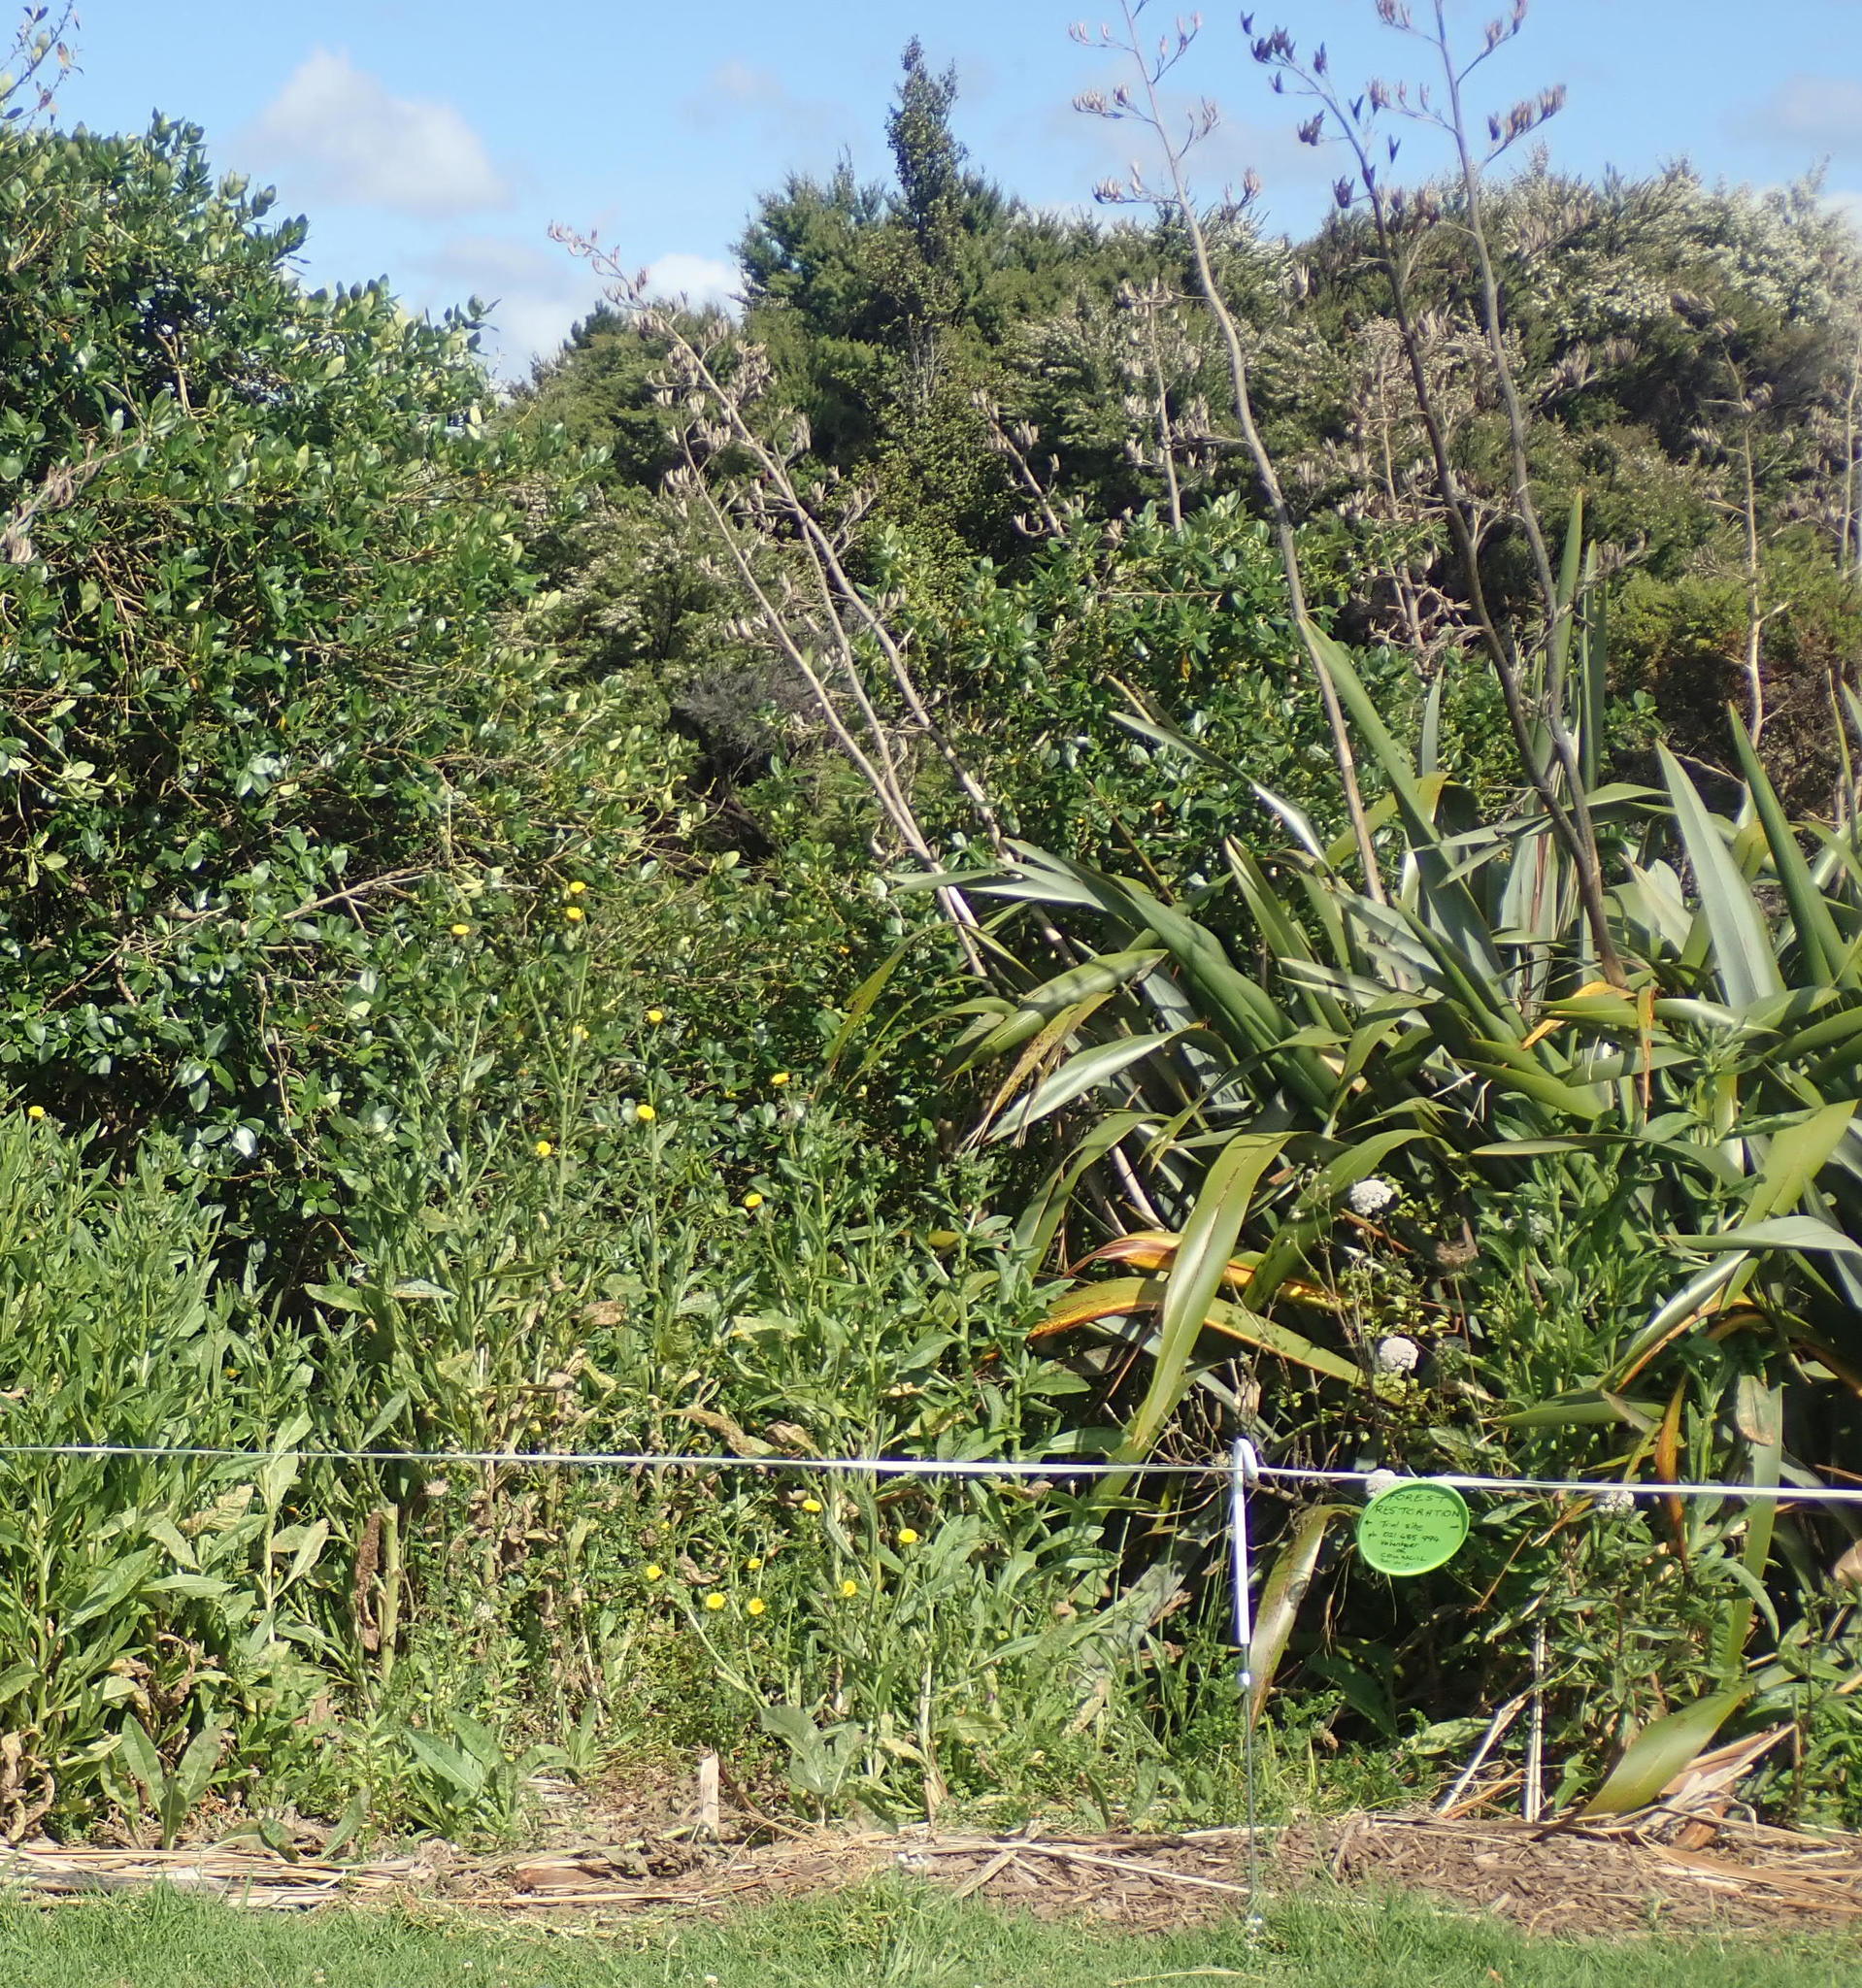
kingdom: Plantae
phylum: Tracheophyta
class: Magnoliopsida
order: Gentianales
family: Rubiaceae
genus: Coprosma
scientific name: Coprosma robusta
